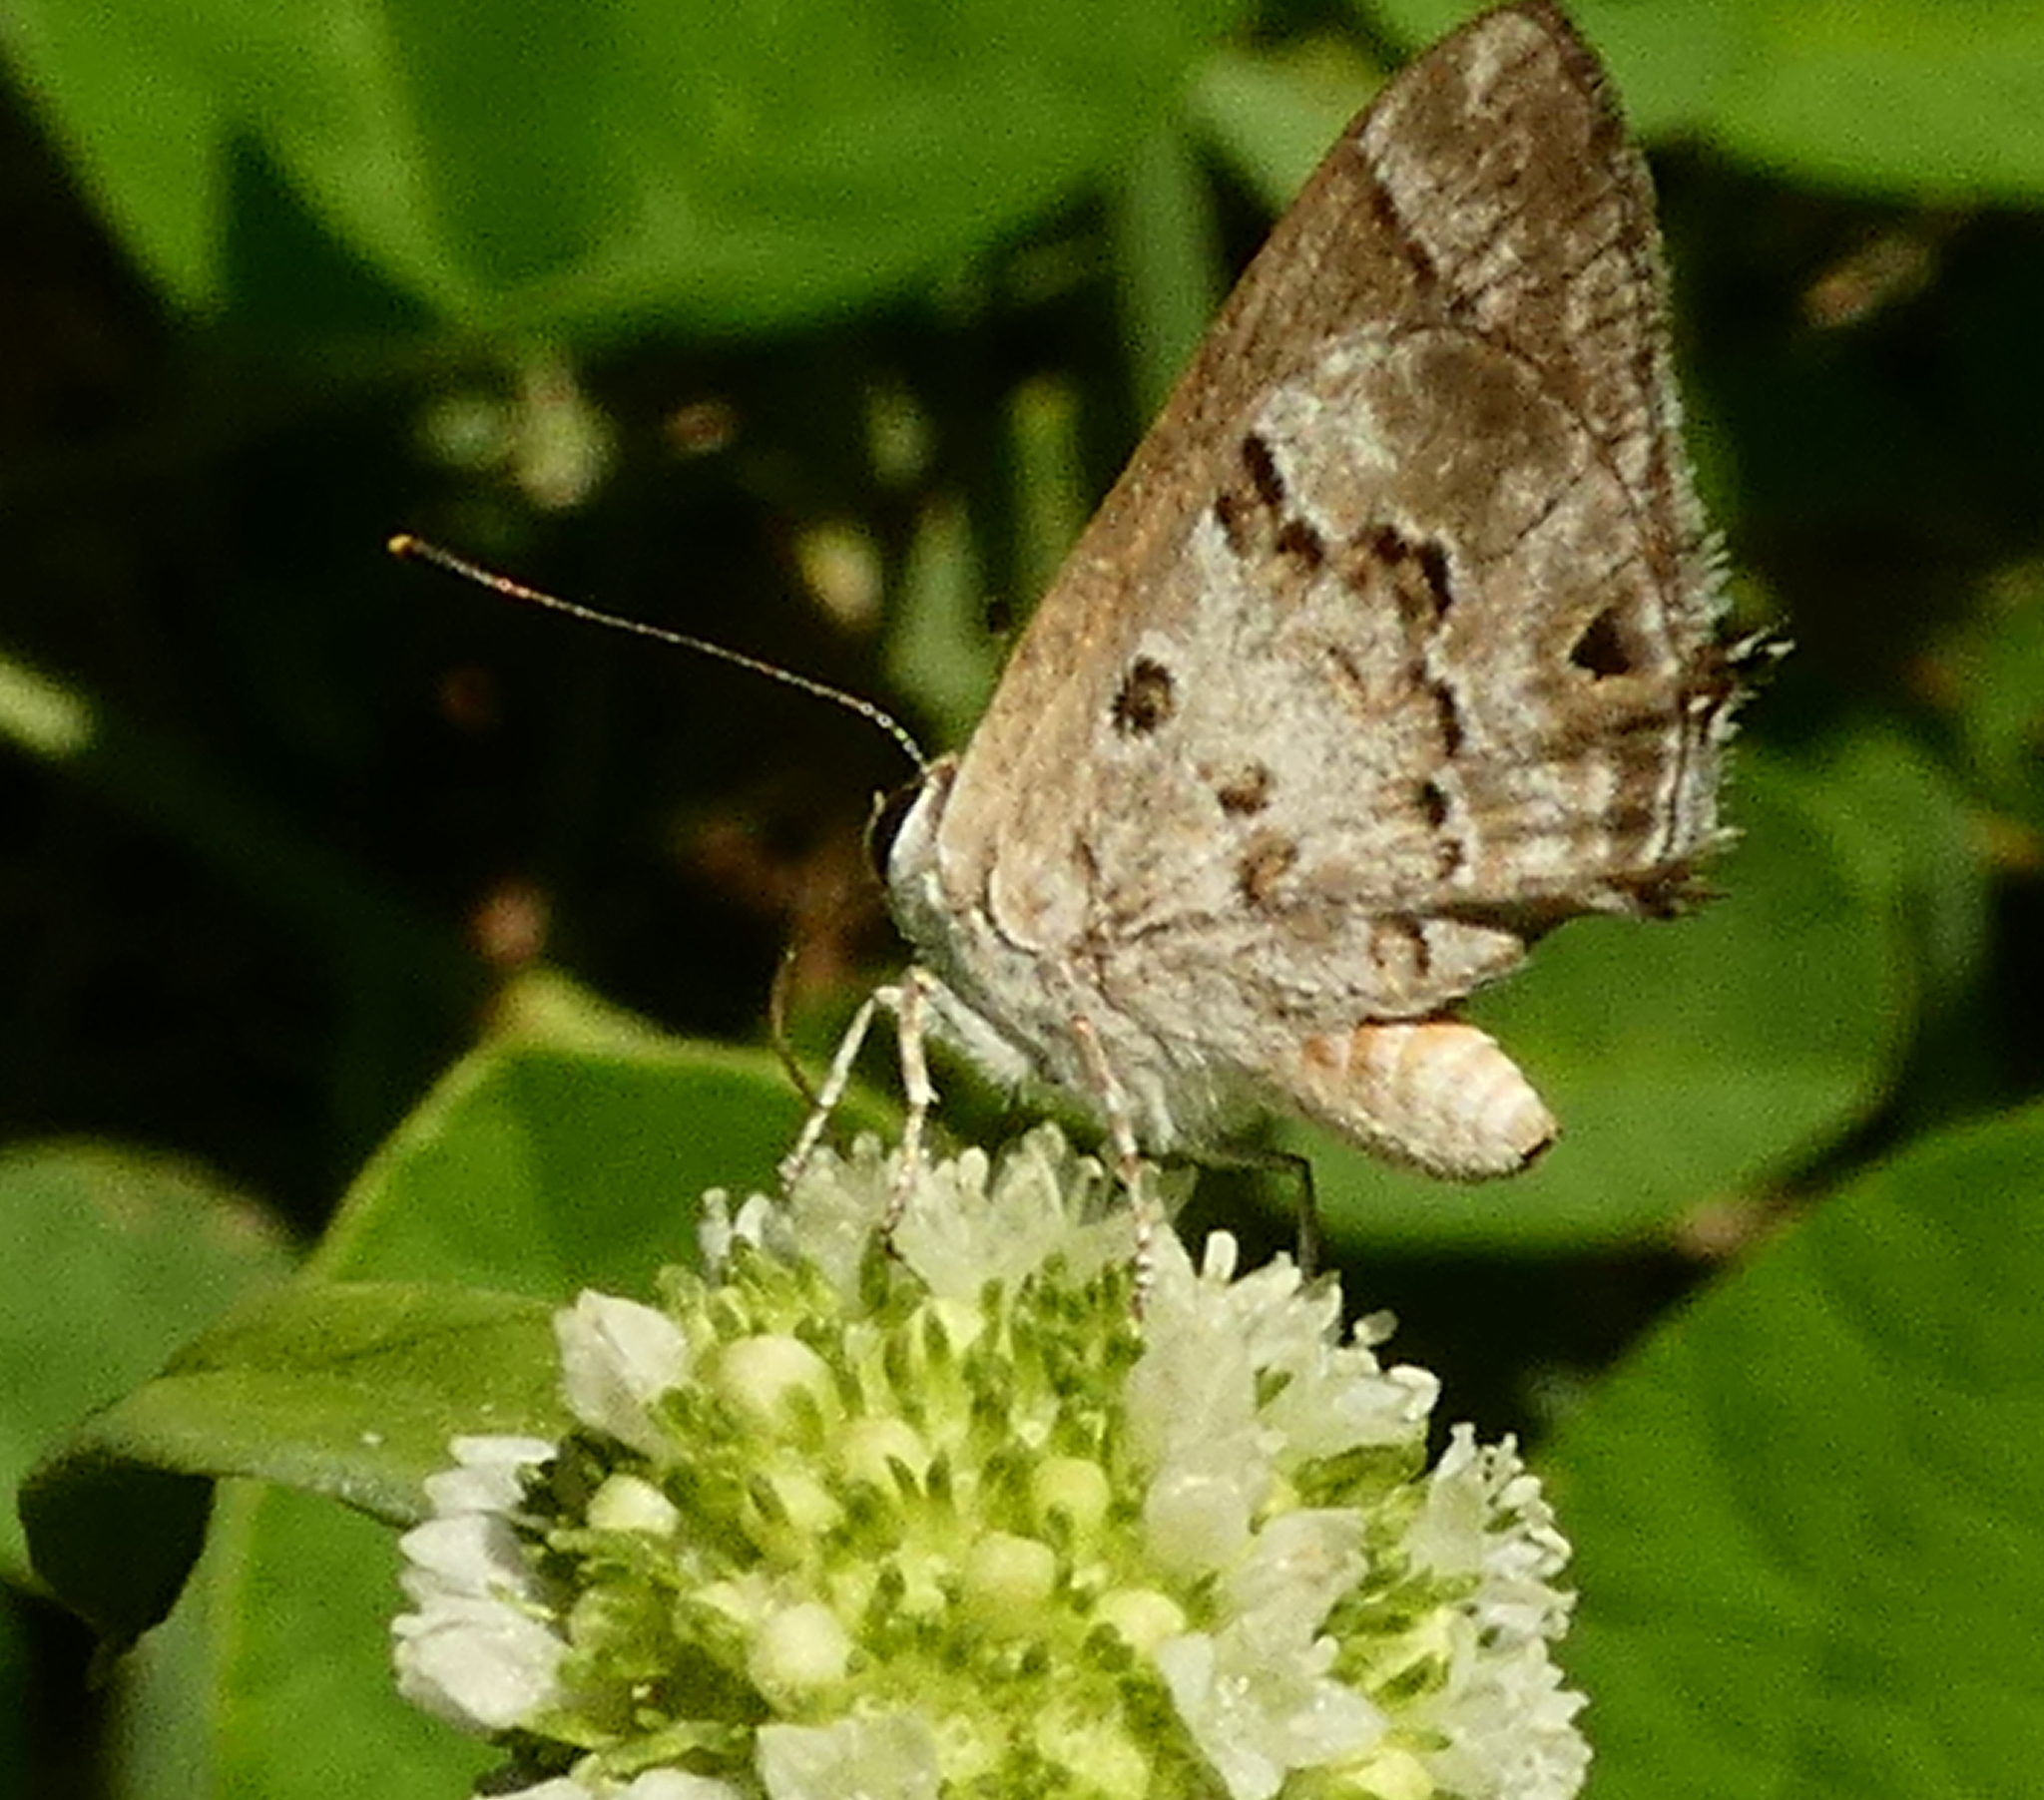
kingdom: Animalia
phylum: Arthropoda
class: Insecta
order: Lepidoptera
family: Lycaenidae
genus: Strymon
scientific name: Strymon astiocha
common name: Gray-spotted scrub-hairstreak
